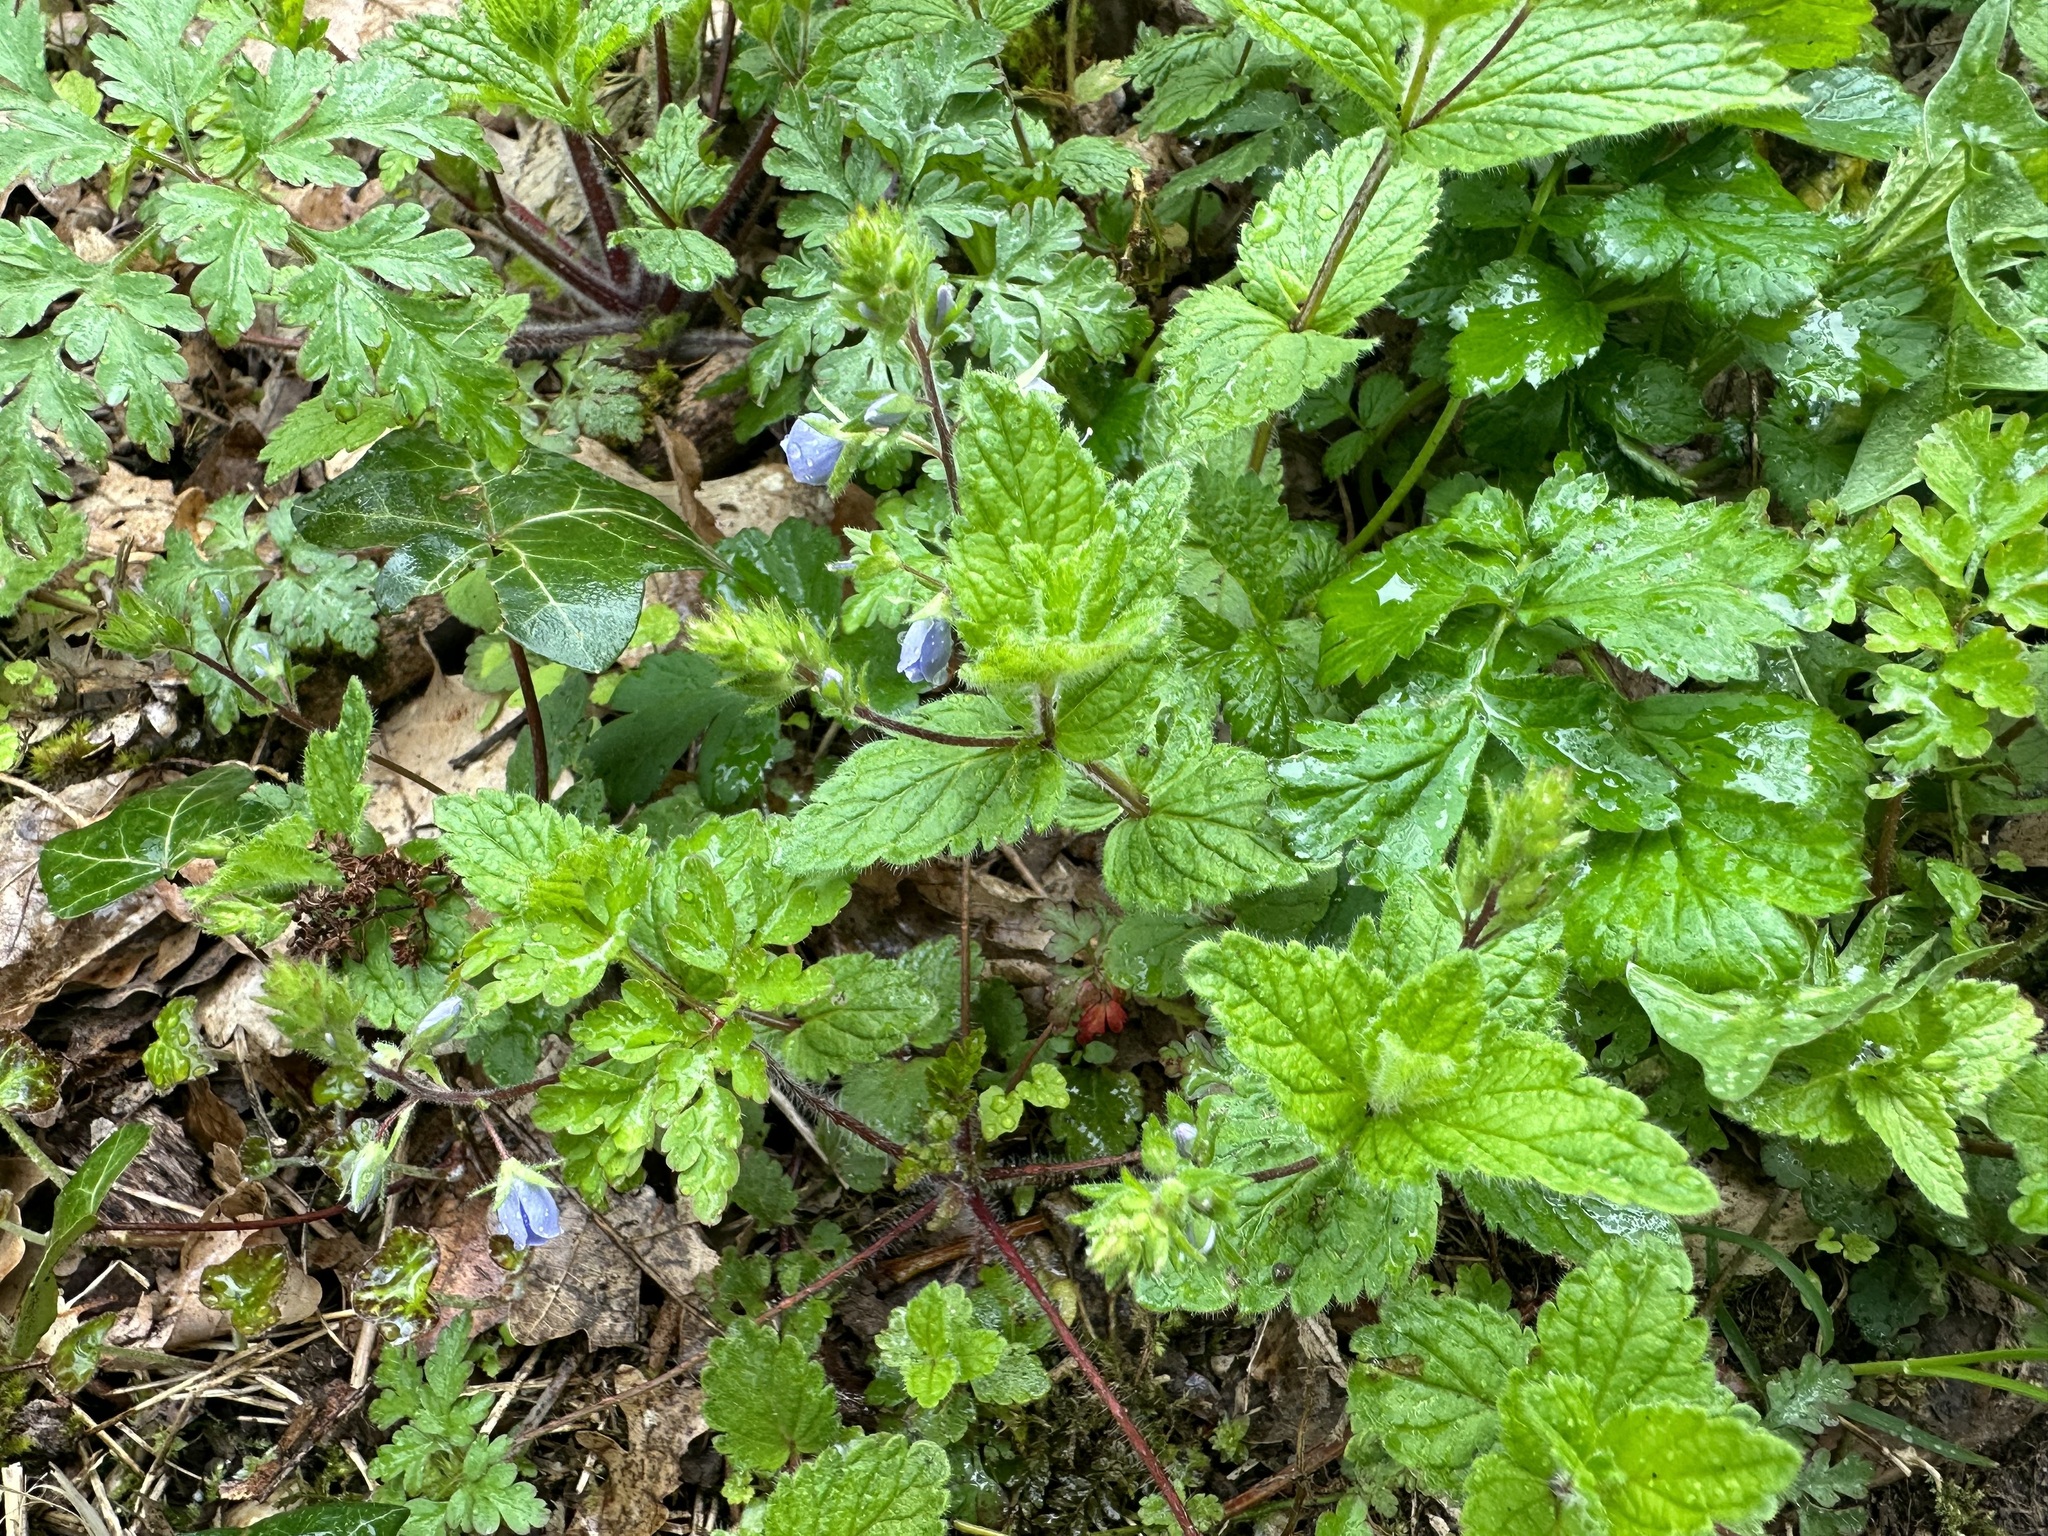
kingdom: Plantae
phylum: Tracheophyta
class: Magnoliopsida
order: Lamiales
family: Plantaginaceae
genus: Veronica
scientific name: Veronica chamaedrys
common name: Germander speedwell
